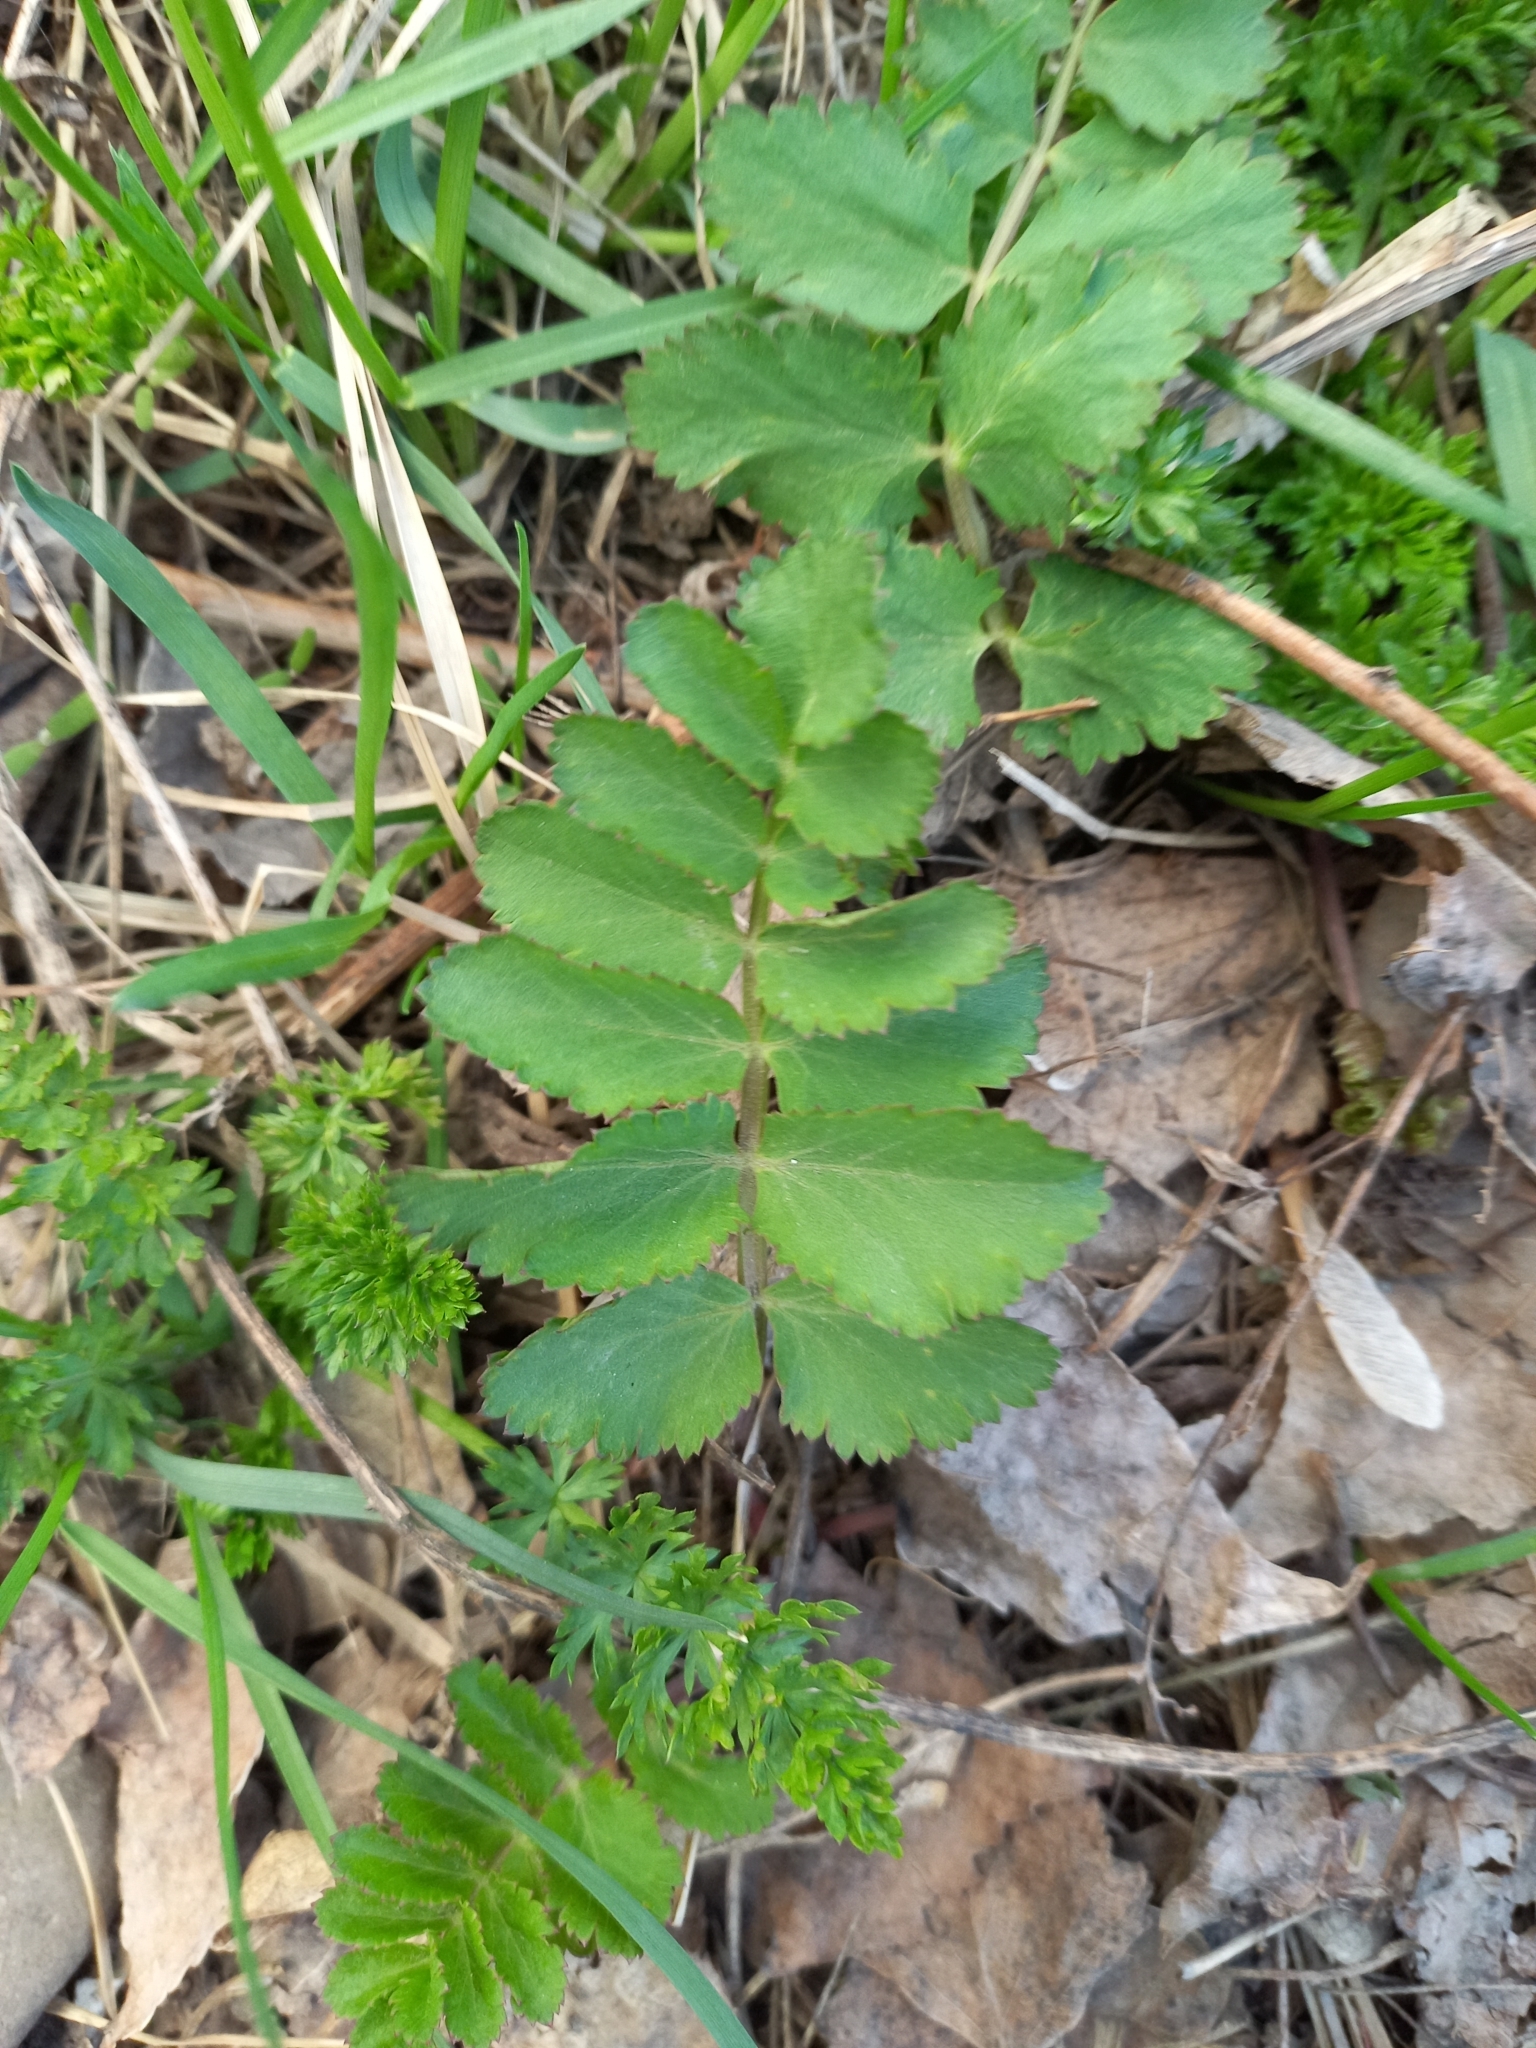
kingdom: Plantae
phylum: Tracheophyta
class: Magnoliopsida
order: Apiales
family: Apiaceae
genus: Pimpinella
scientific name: Pimpinella saxifraga
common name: Burnet-saxifrage
